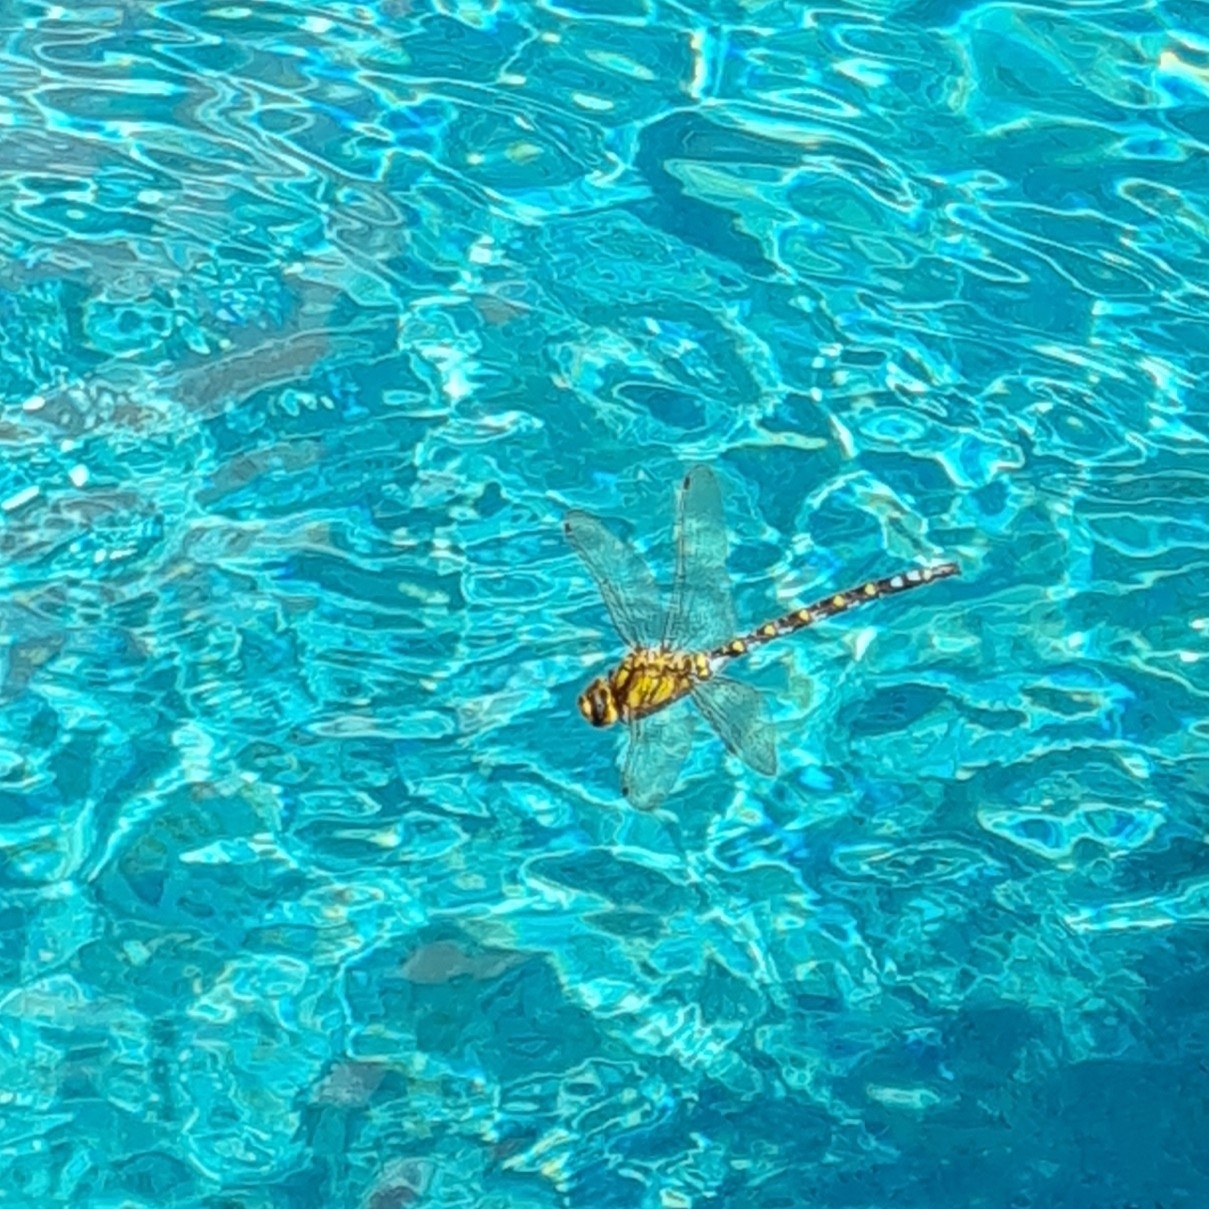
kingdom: Animalia
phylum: Arthropoda
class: Insecta
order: Odonata
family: Aeshnidae
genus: Aeshna
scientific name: Aeshna cyanea
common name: Southern hawker
